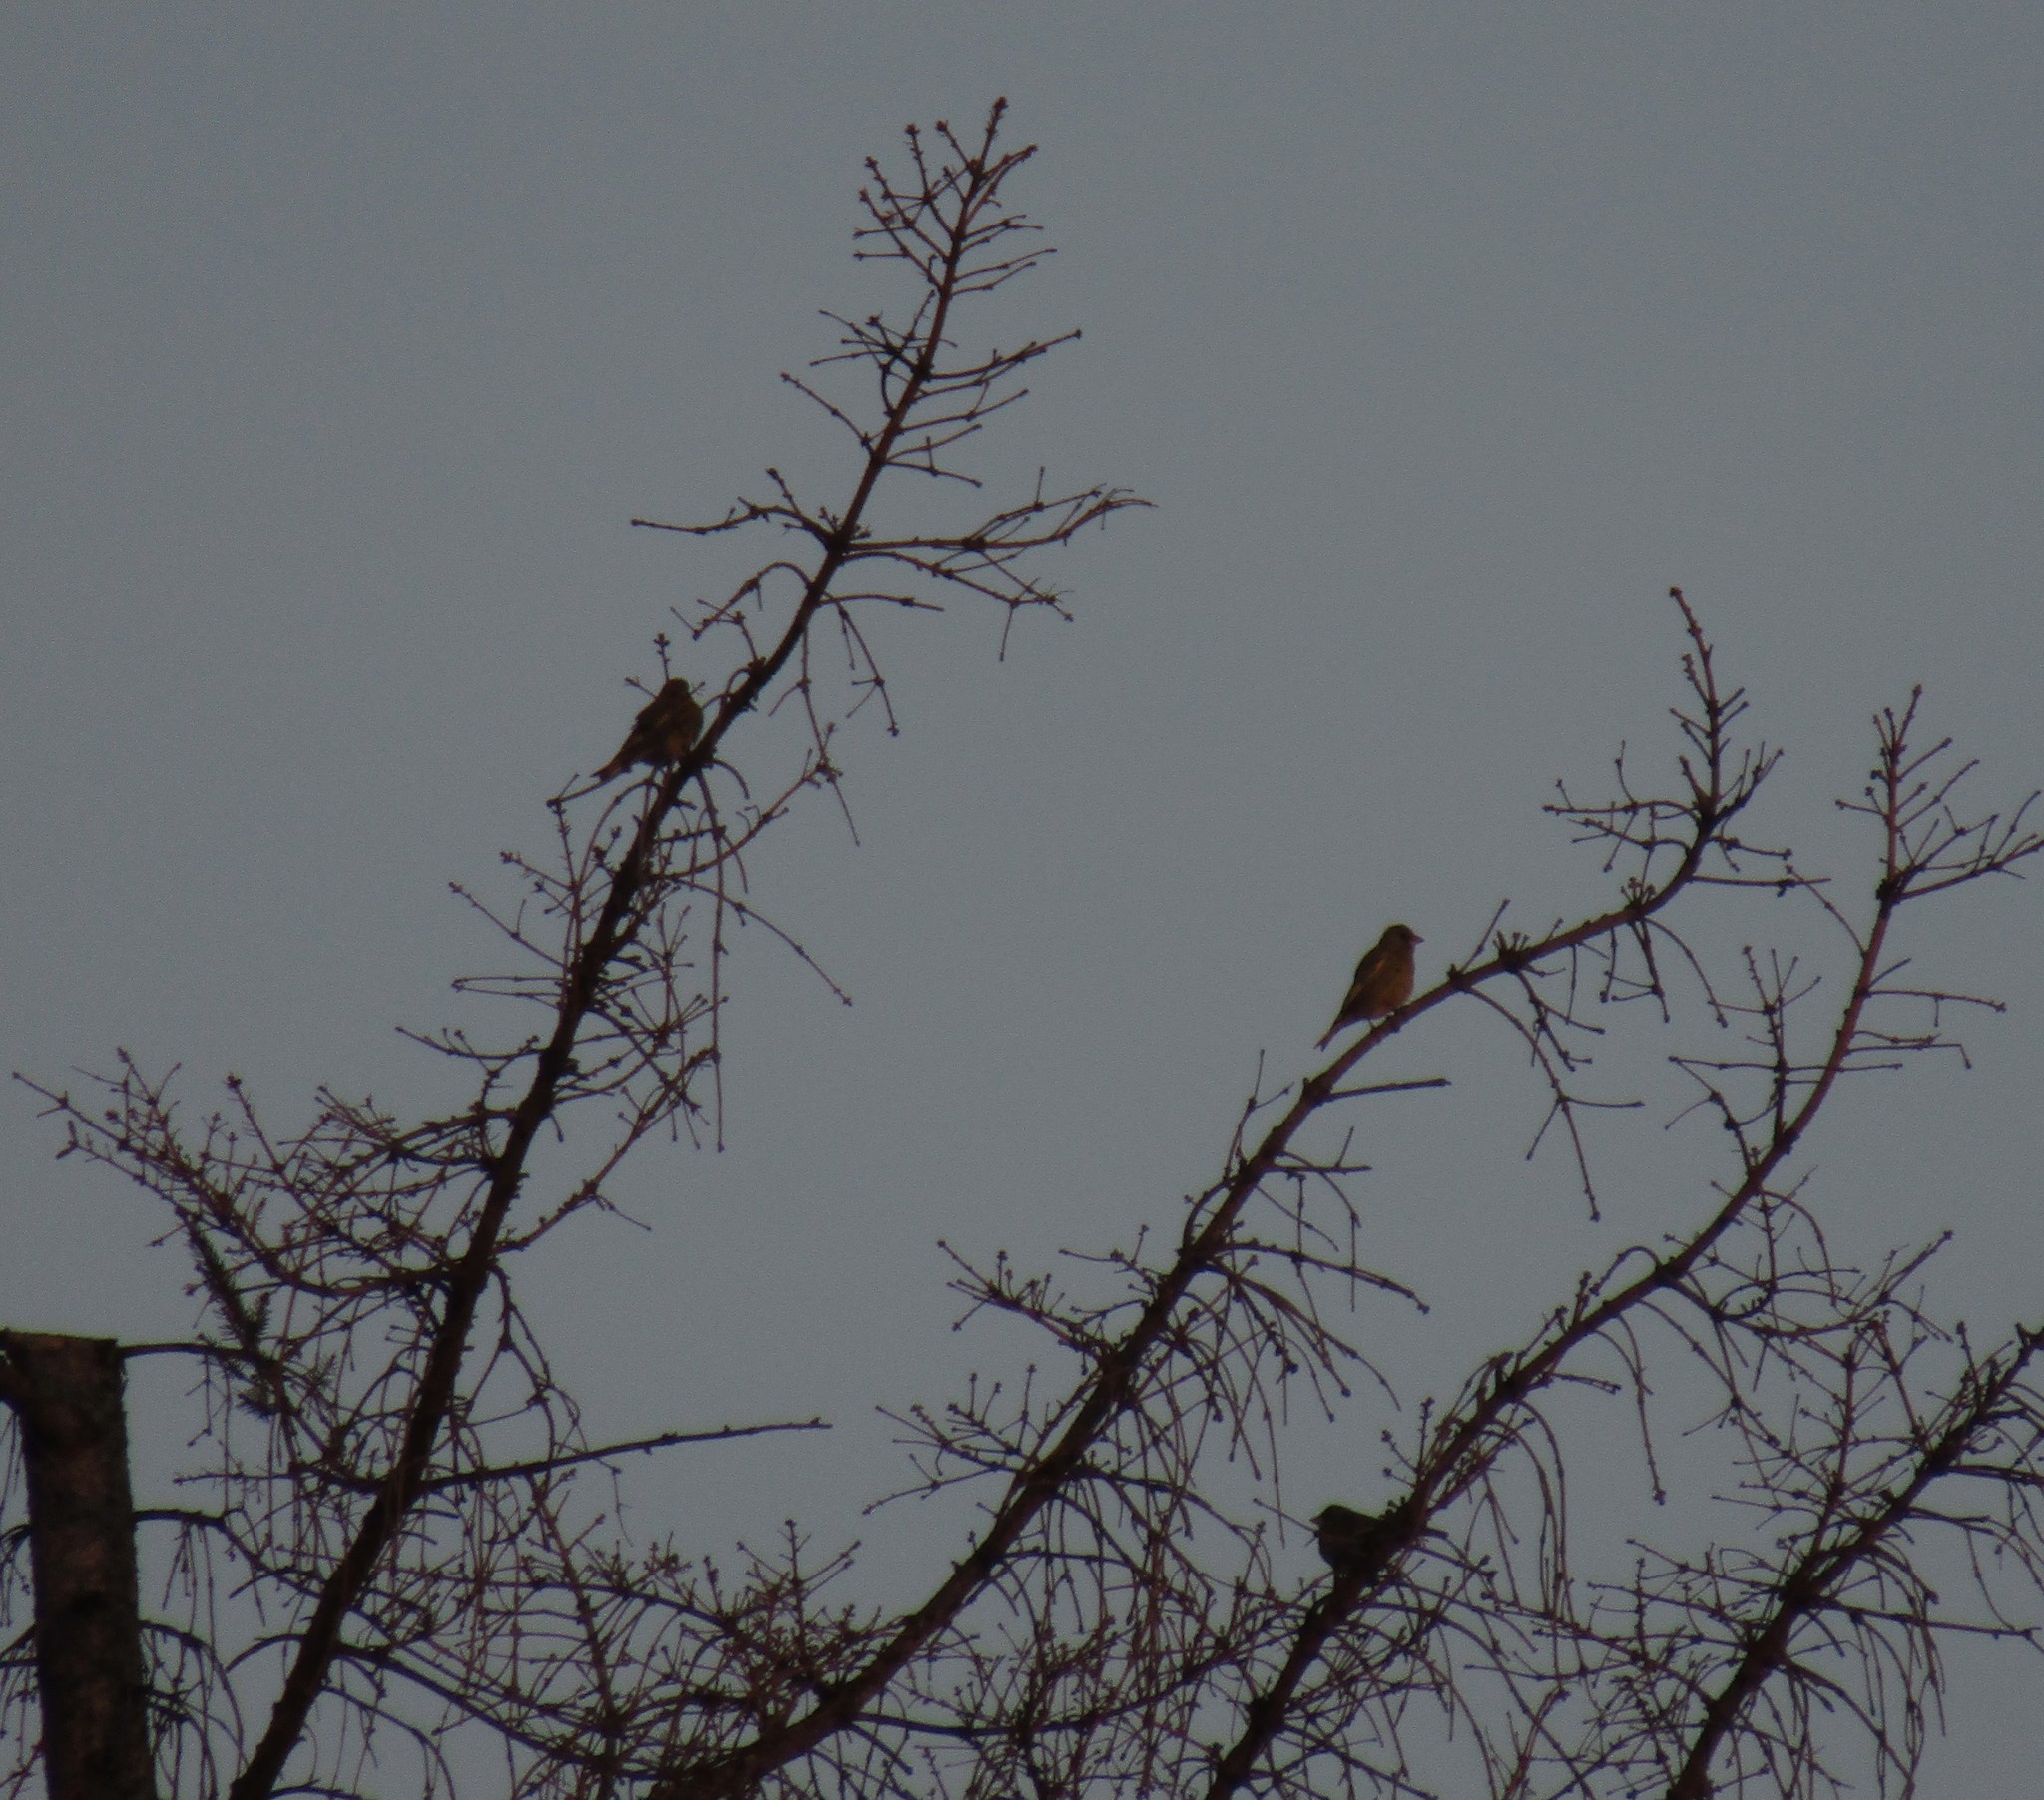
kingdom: Plantae
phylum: Tracheophyta
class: Liliopsida
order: Poales
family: Poaceae
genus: Chloris
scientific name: Chloris chloris
